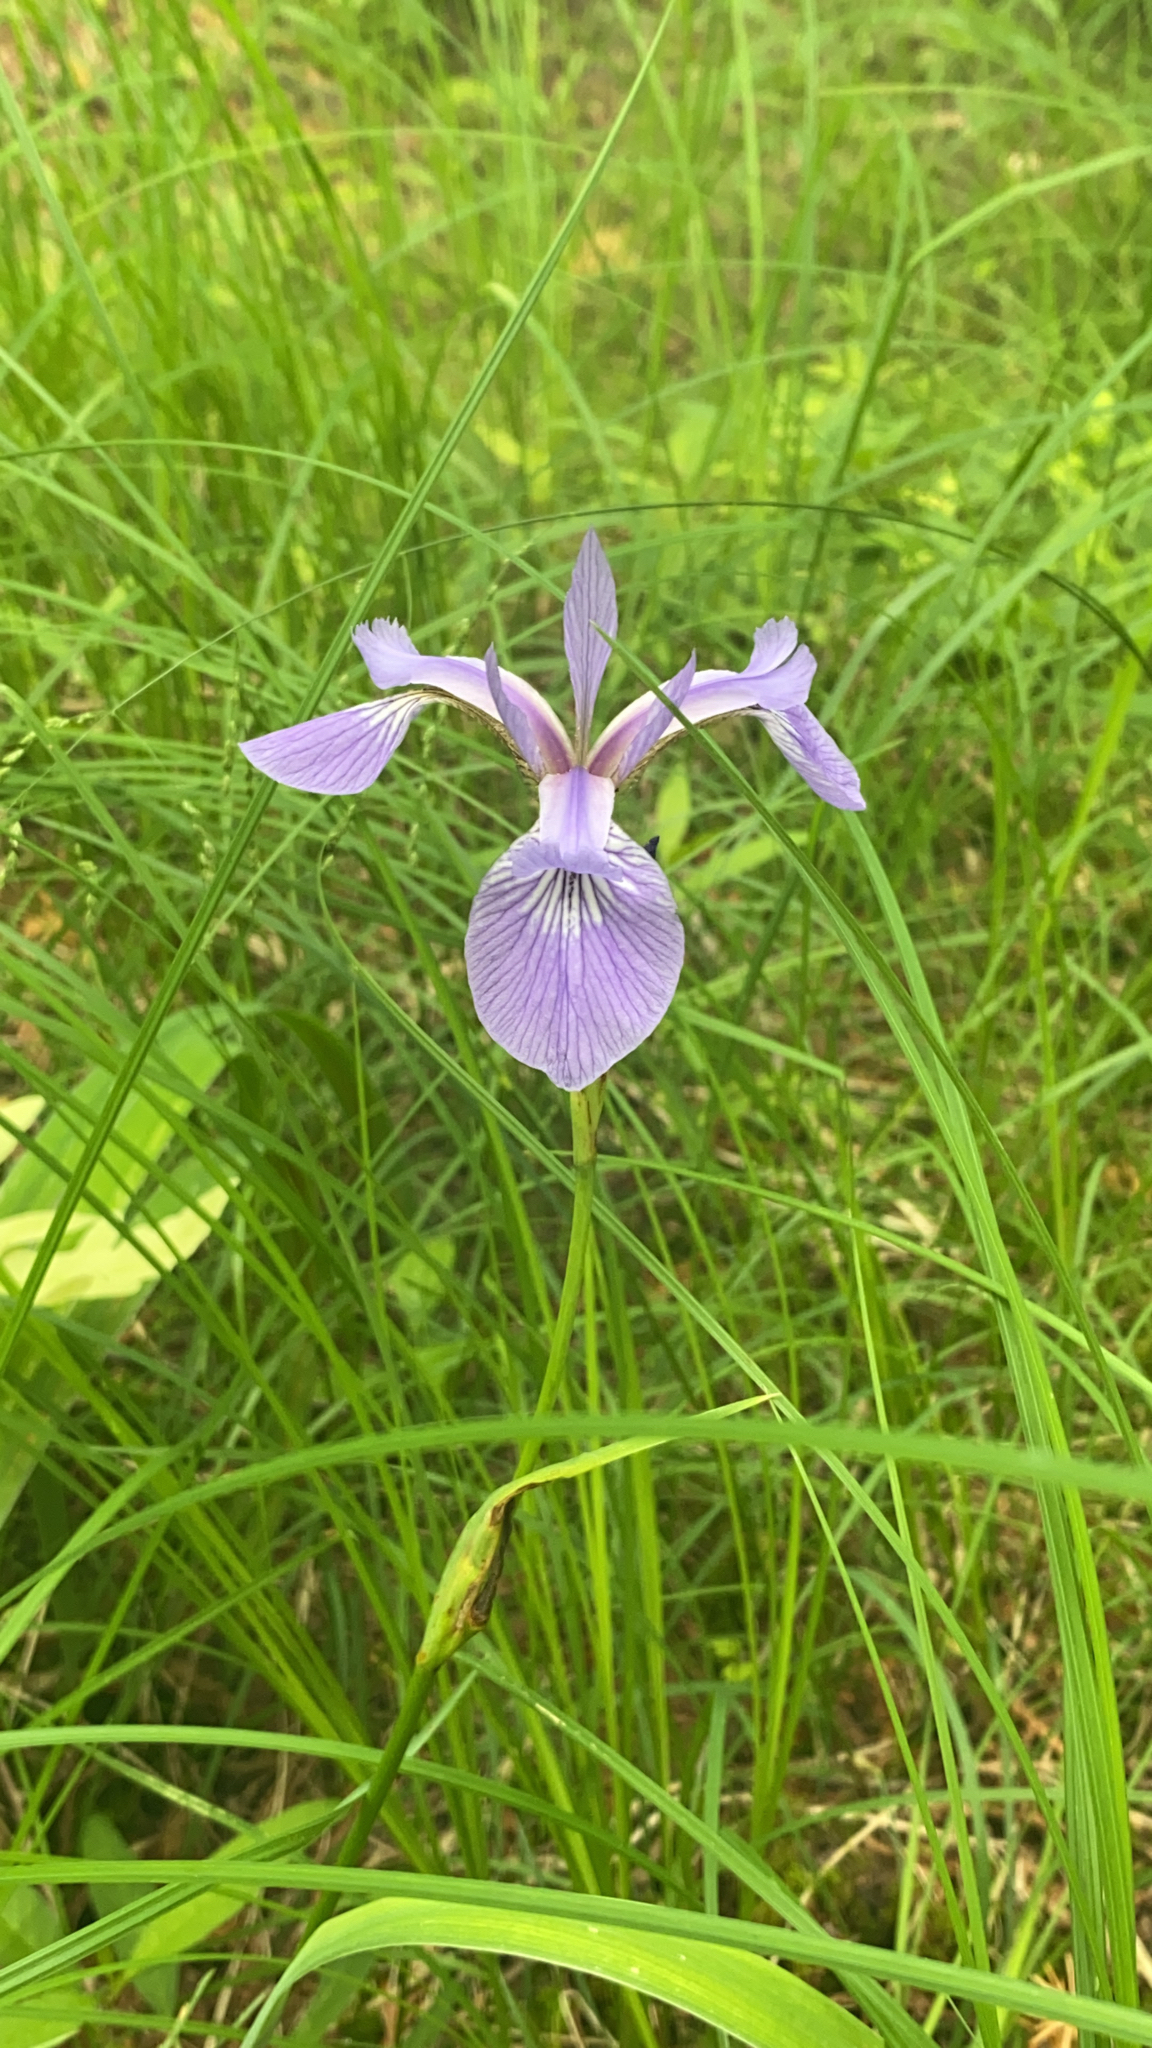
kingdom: Plantae
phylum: Tracheophyta
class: Liliopsida
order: Asparagales
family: Iridaceae
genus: Iris
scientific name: Iris versicolor
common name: Purple iris
